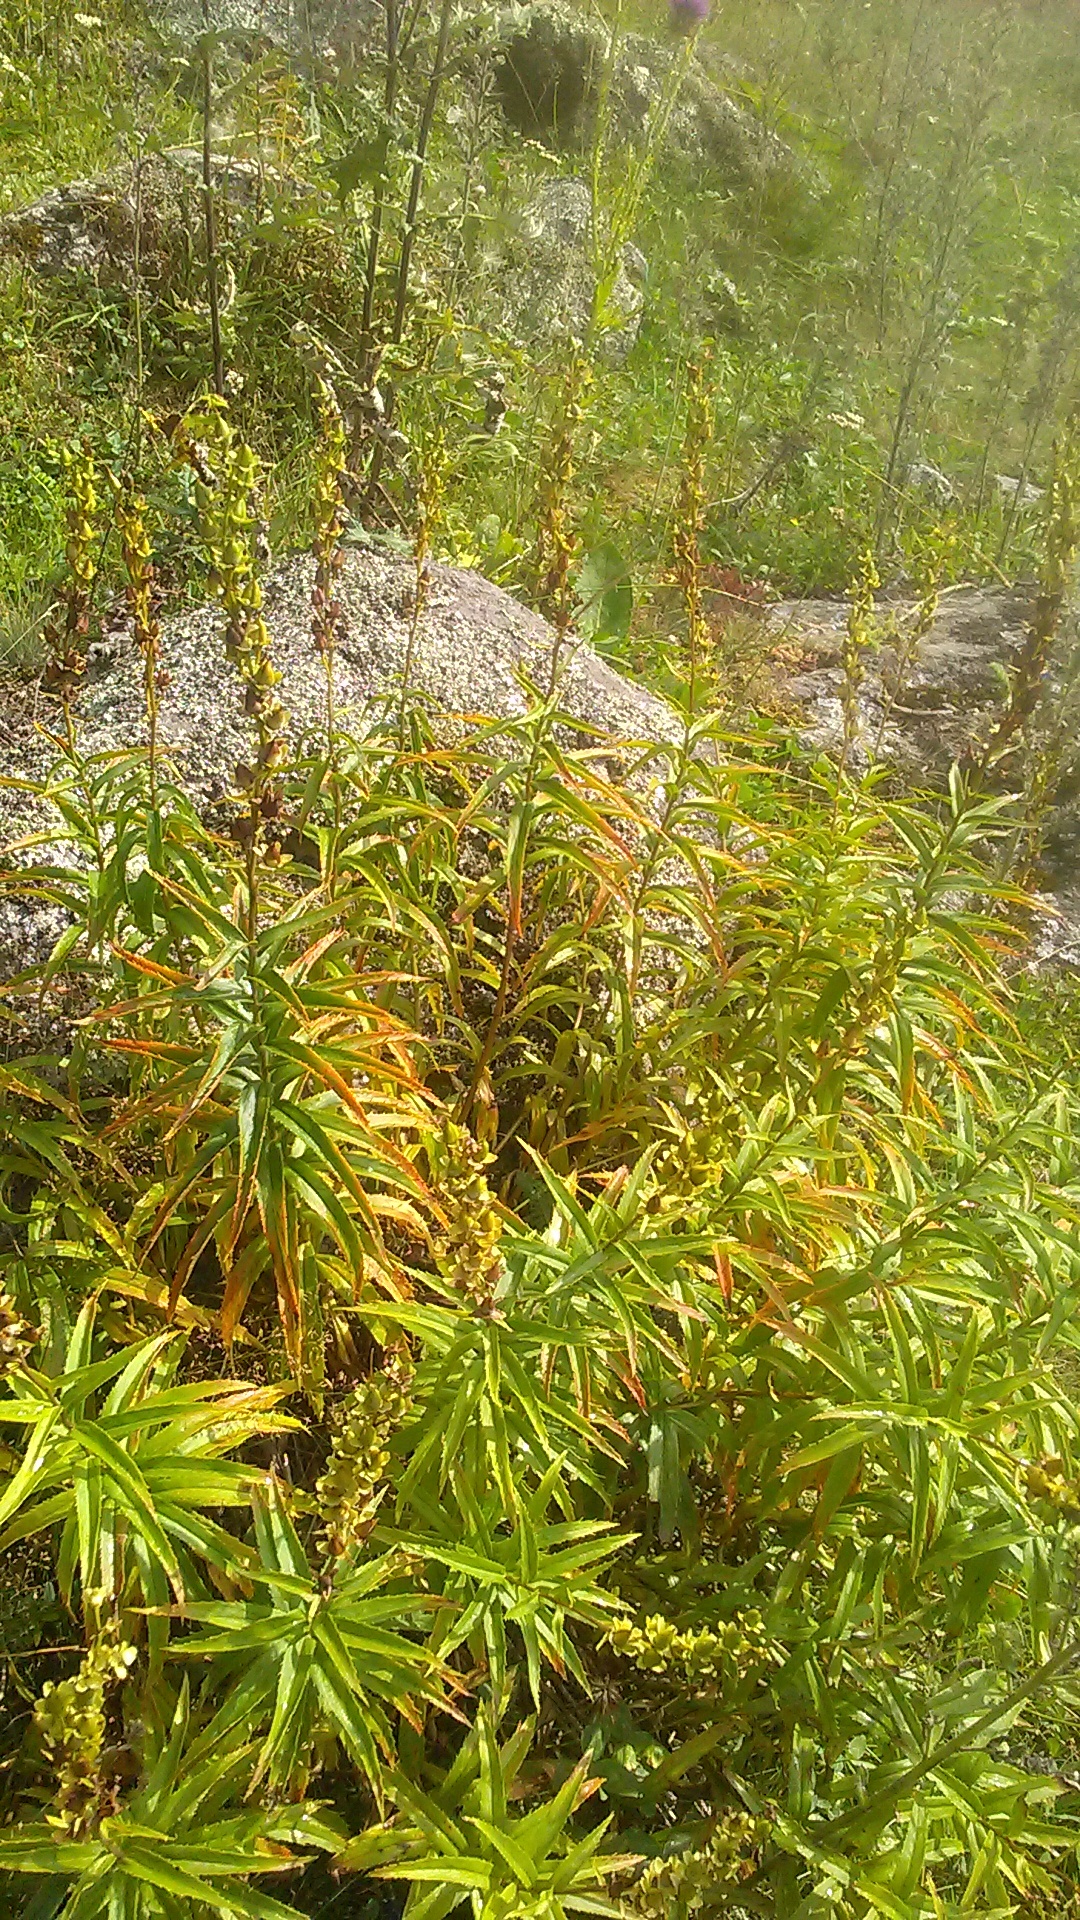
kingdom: Plantae
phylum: Tracheophyta
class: Magnoliopsida
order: Lamiales
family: Plantaginaceae
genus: Digitalis
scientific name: Digitalis ciliata
